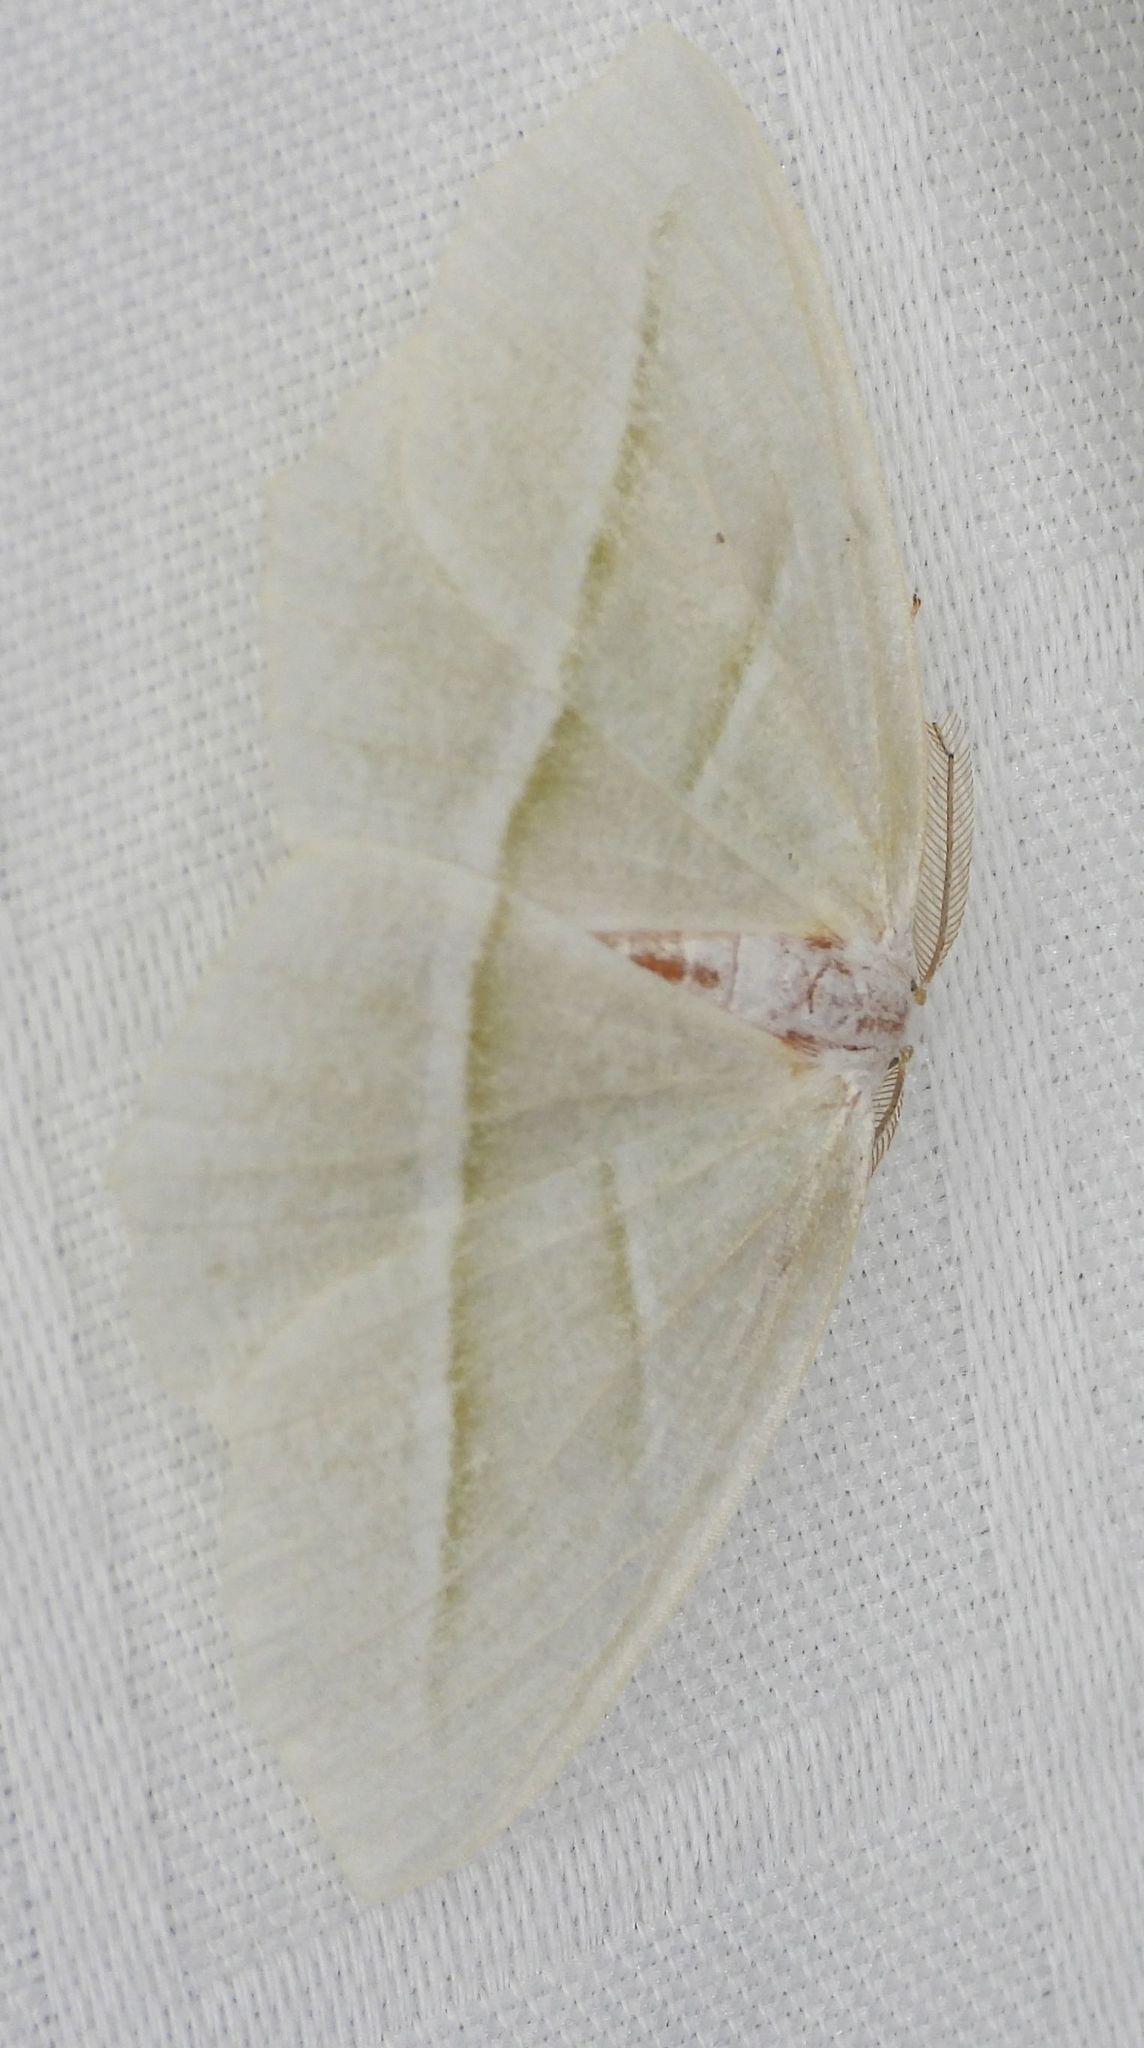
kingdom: Animalia
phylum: Arthropoda
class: Insecta
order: Lepidoptera
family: Geometridae
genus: Campaea
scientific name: Campaea perlata
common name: Fringed looper
